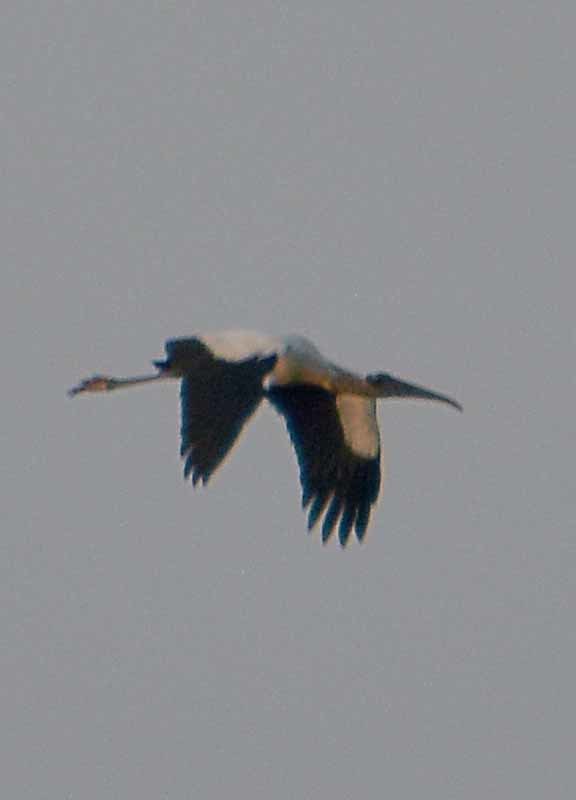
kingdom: Animalia
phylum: Chordata
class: Aves
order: Ciconiiformes
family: Ciconiidae
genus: Mycteria
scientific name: Mycteria americana
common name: Wood stork
